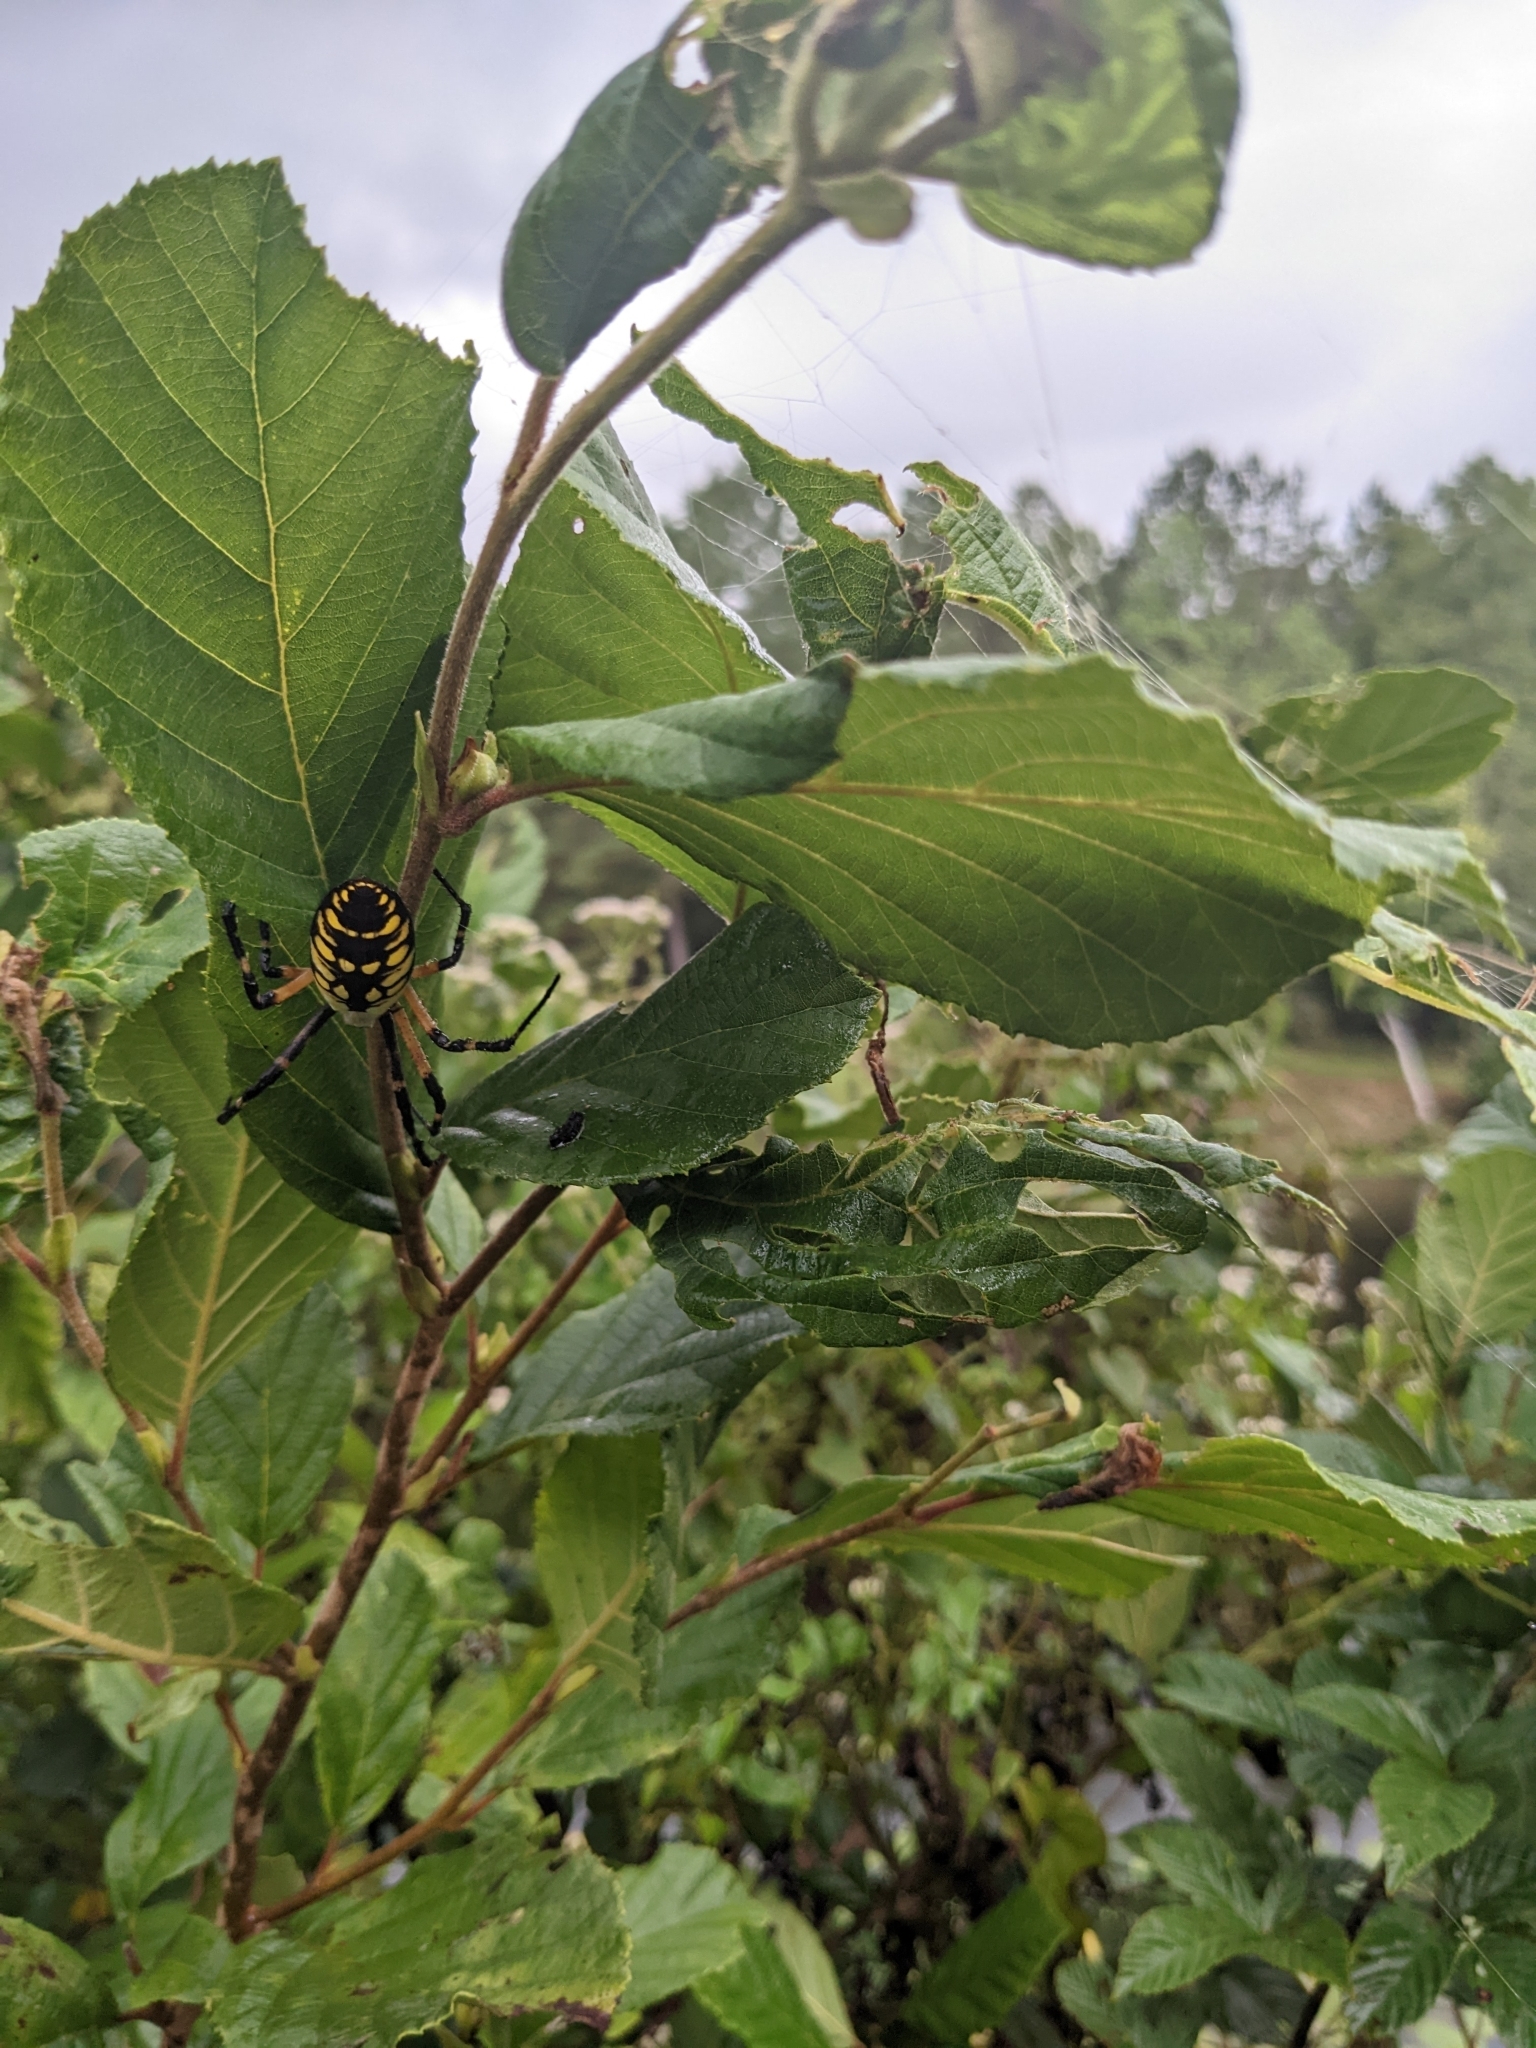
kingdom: Animalia
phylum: Arthropoda
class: Arachnida
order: Araneae
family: Araneidae
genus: Argiope
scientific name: Argiope aurantia
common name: Orb weavers
